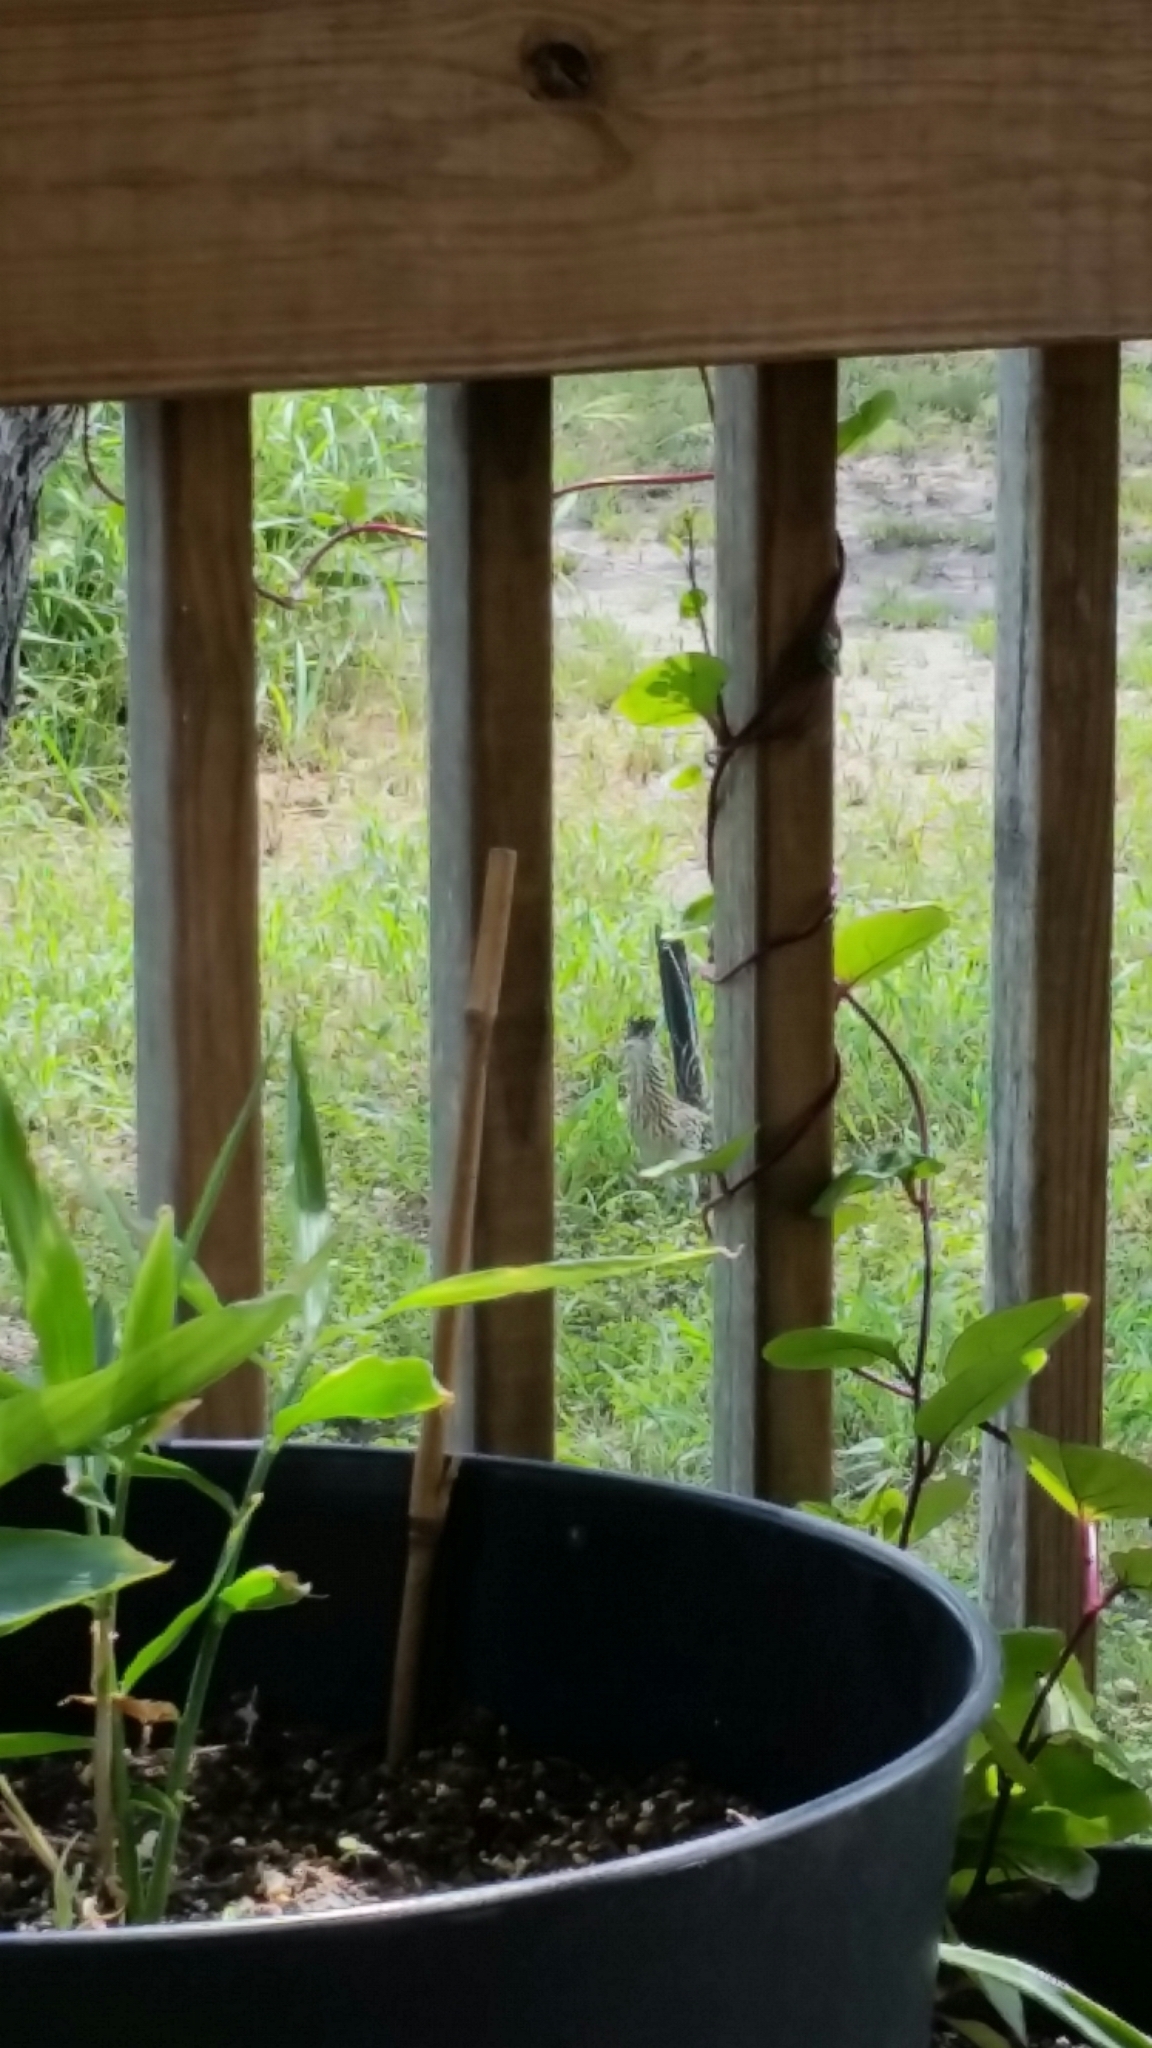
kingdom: Animalia
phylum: Chordata
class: Aves
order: Cuculiformes
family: Cuculidae
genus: Geococcyx
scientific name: Geococcyx californianus
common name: Greater roadrunner
